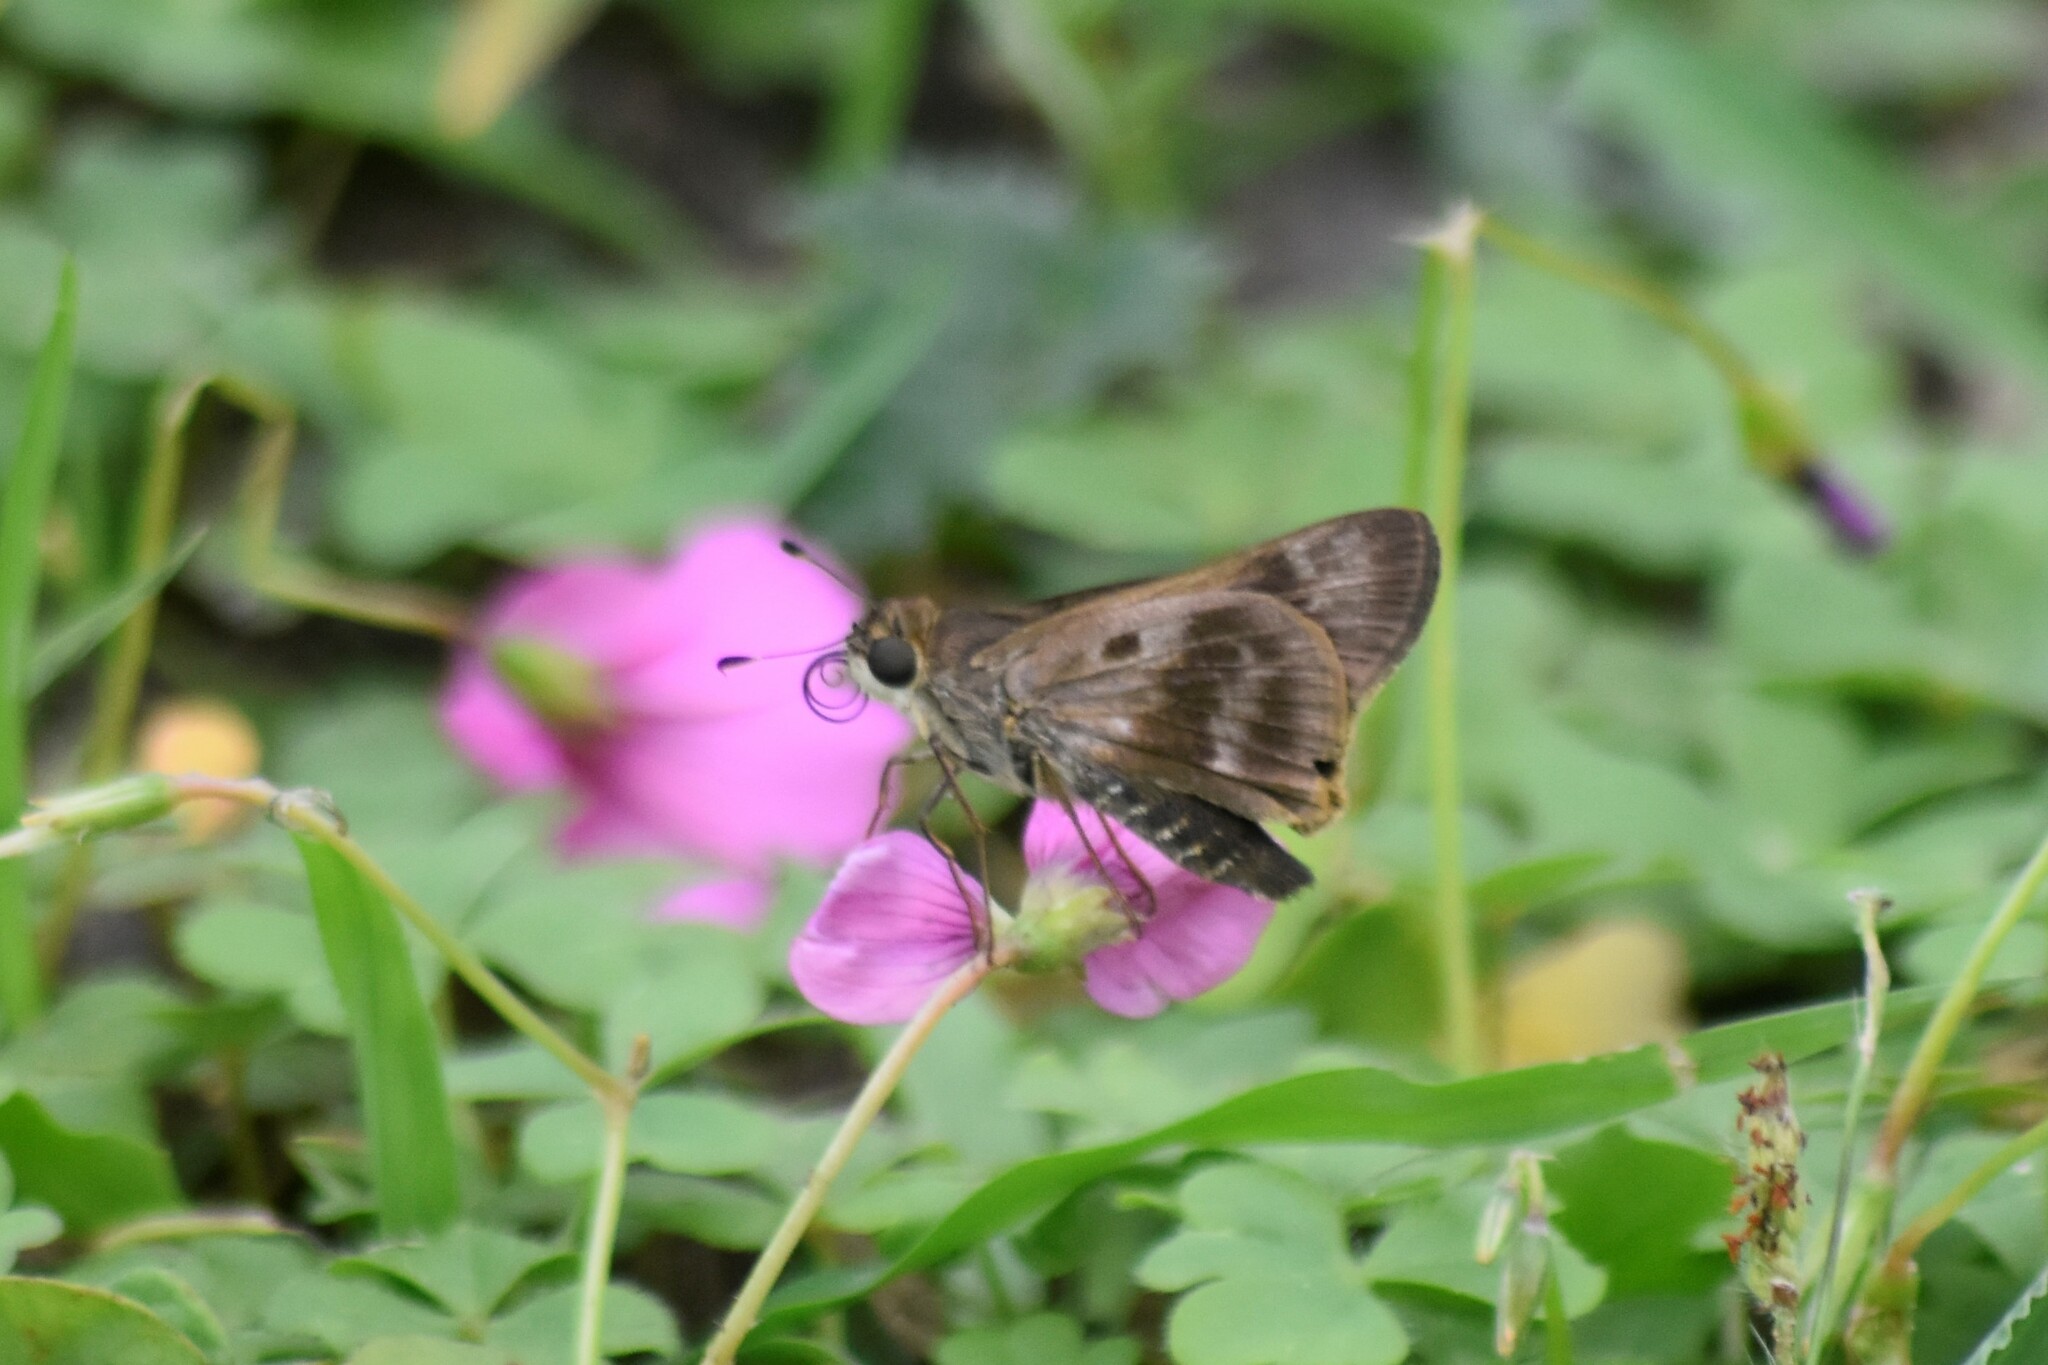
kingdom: Animalia
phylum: Arthropoda
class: Insecta
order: Lepidoptera
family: Hesperiidae
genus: Nyctelius
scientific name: Nyctelius nyctelius
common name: Violet-banded skipper
